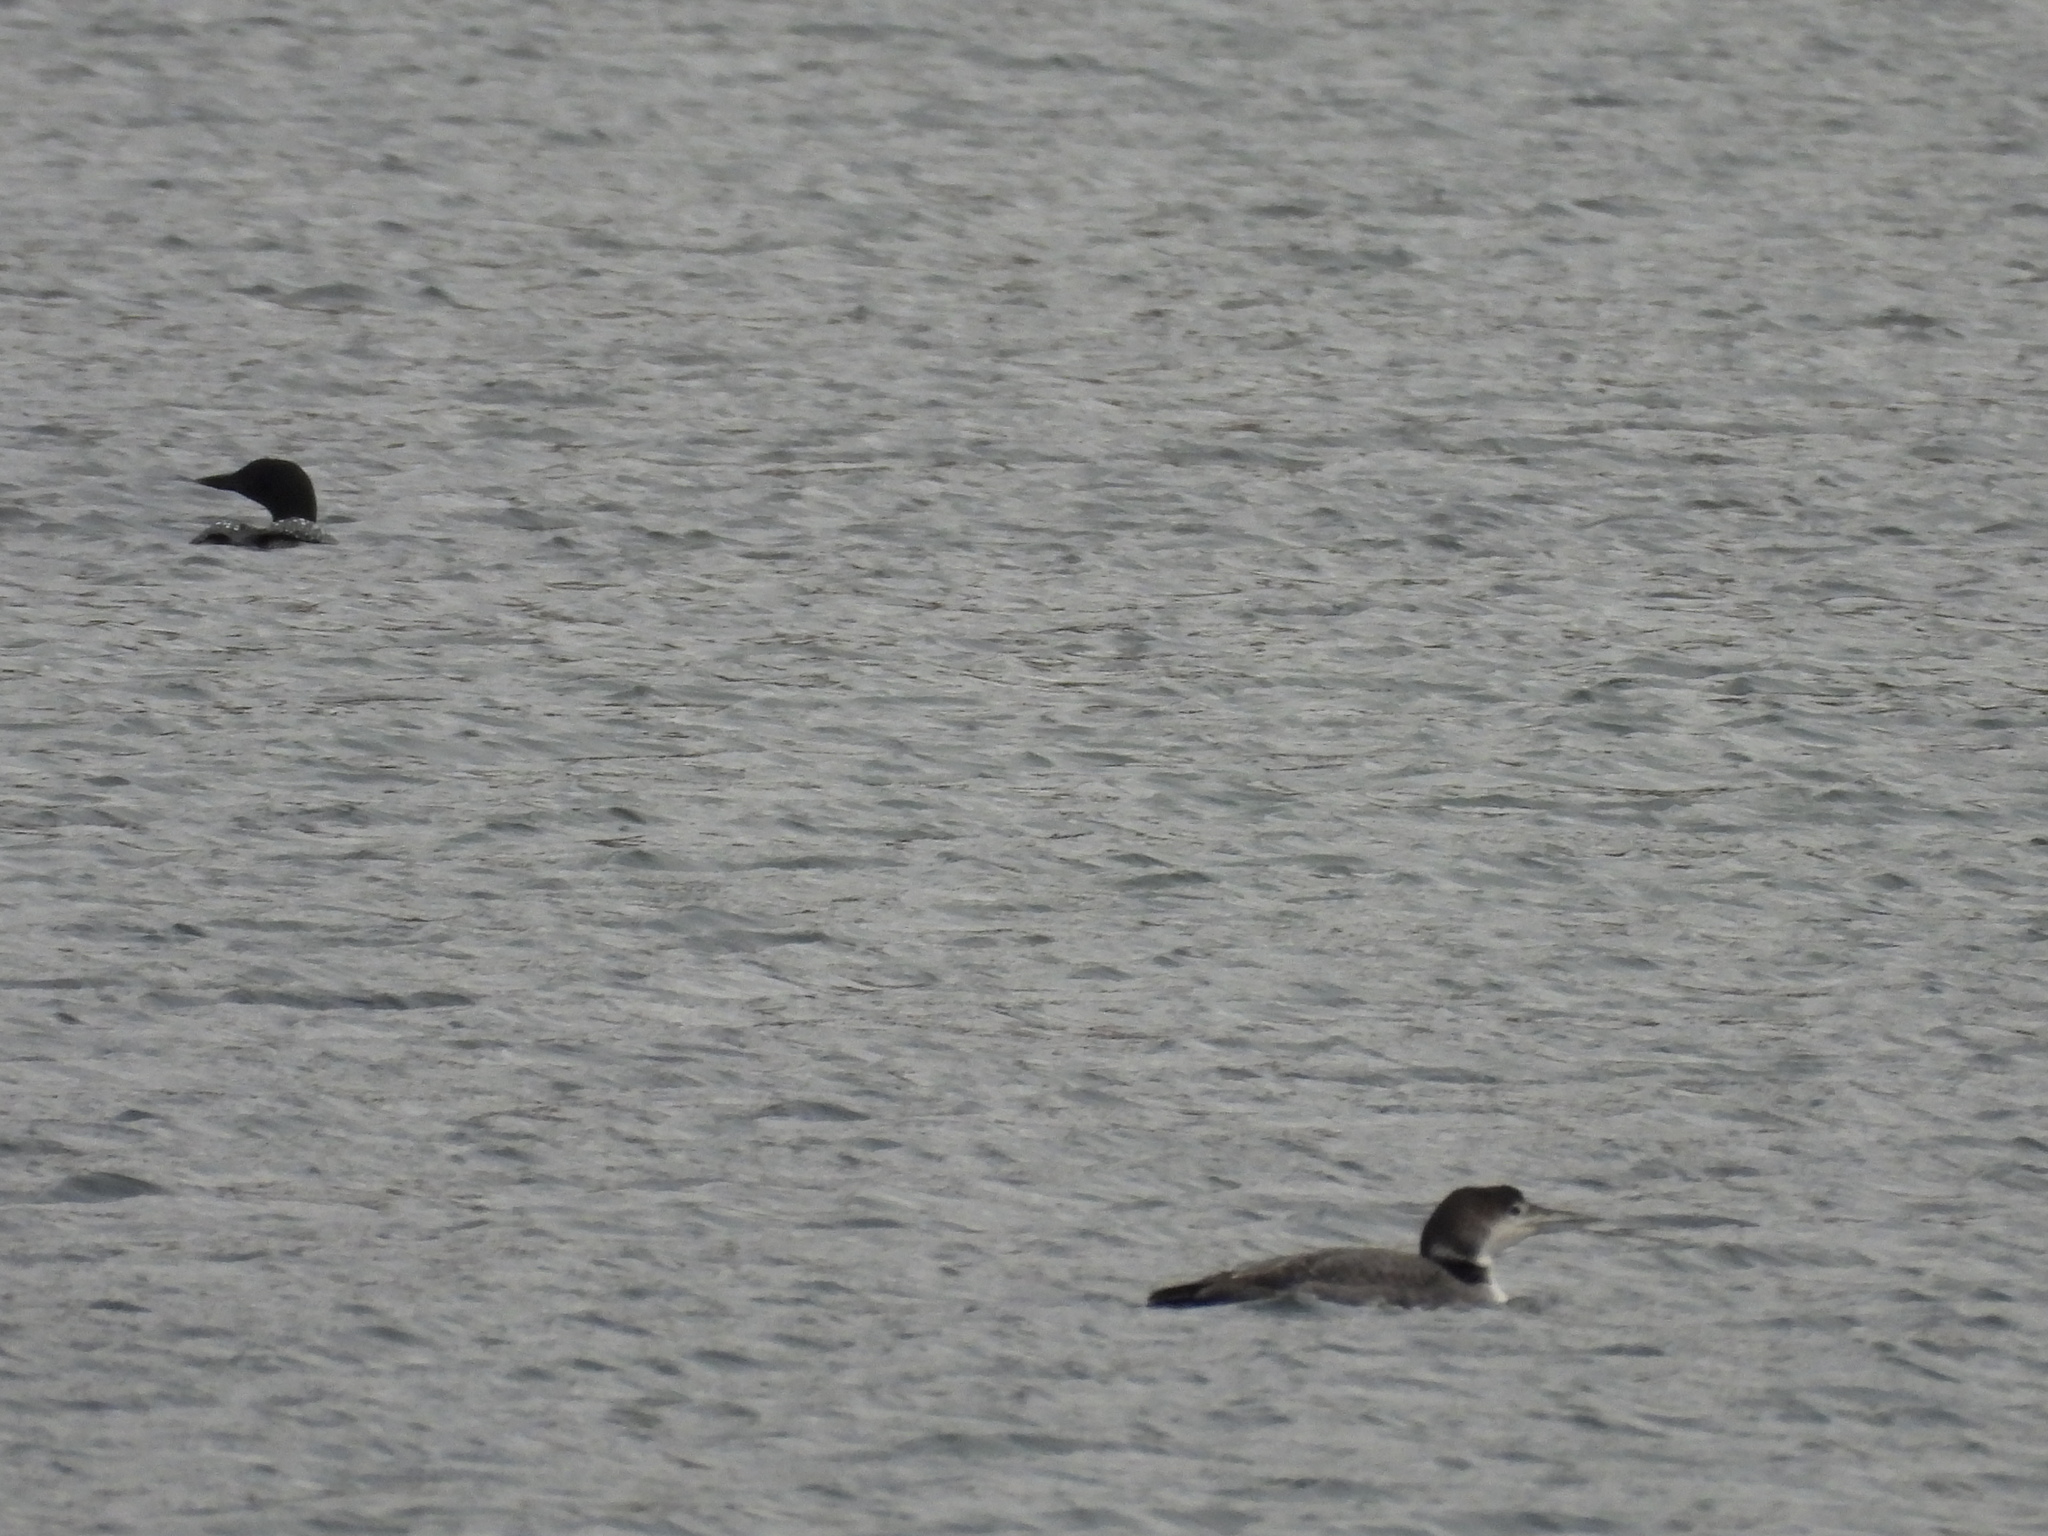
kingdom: Animalia
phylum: Chordata
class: Aves
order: Gaviiformes
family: Gaviidae
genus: Gavia
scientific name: Gavia immer
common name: Common loon
